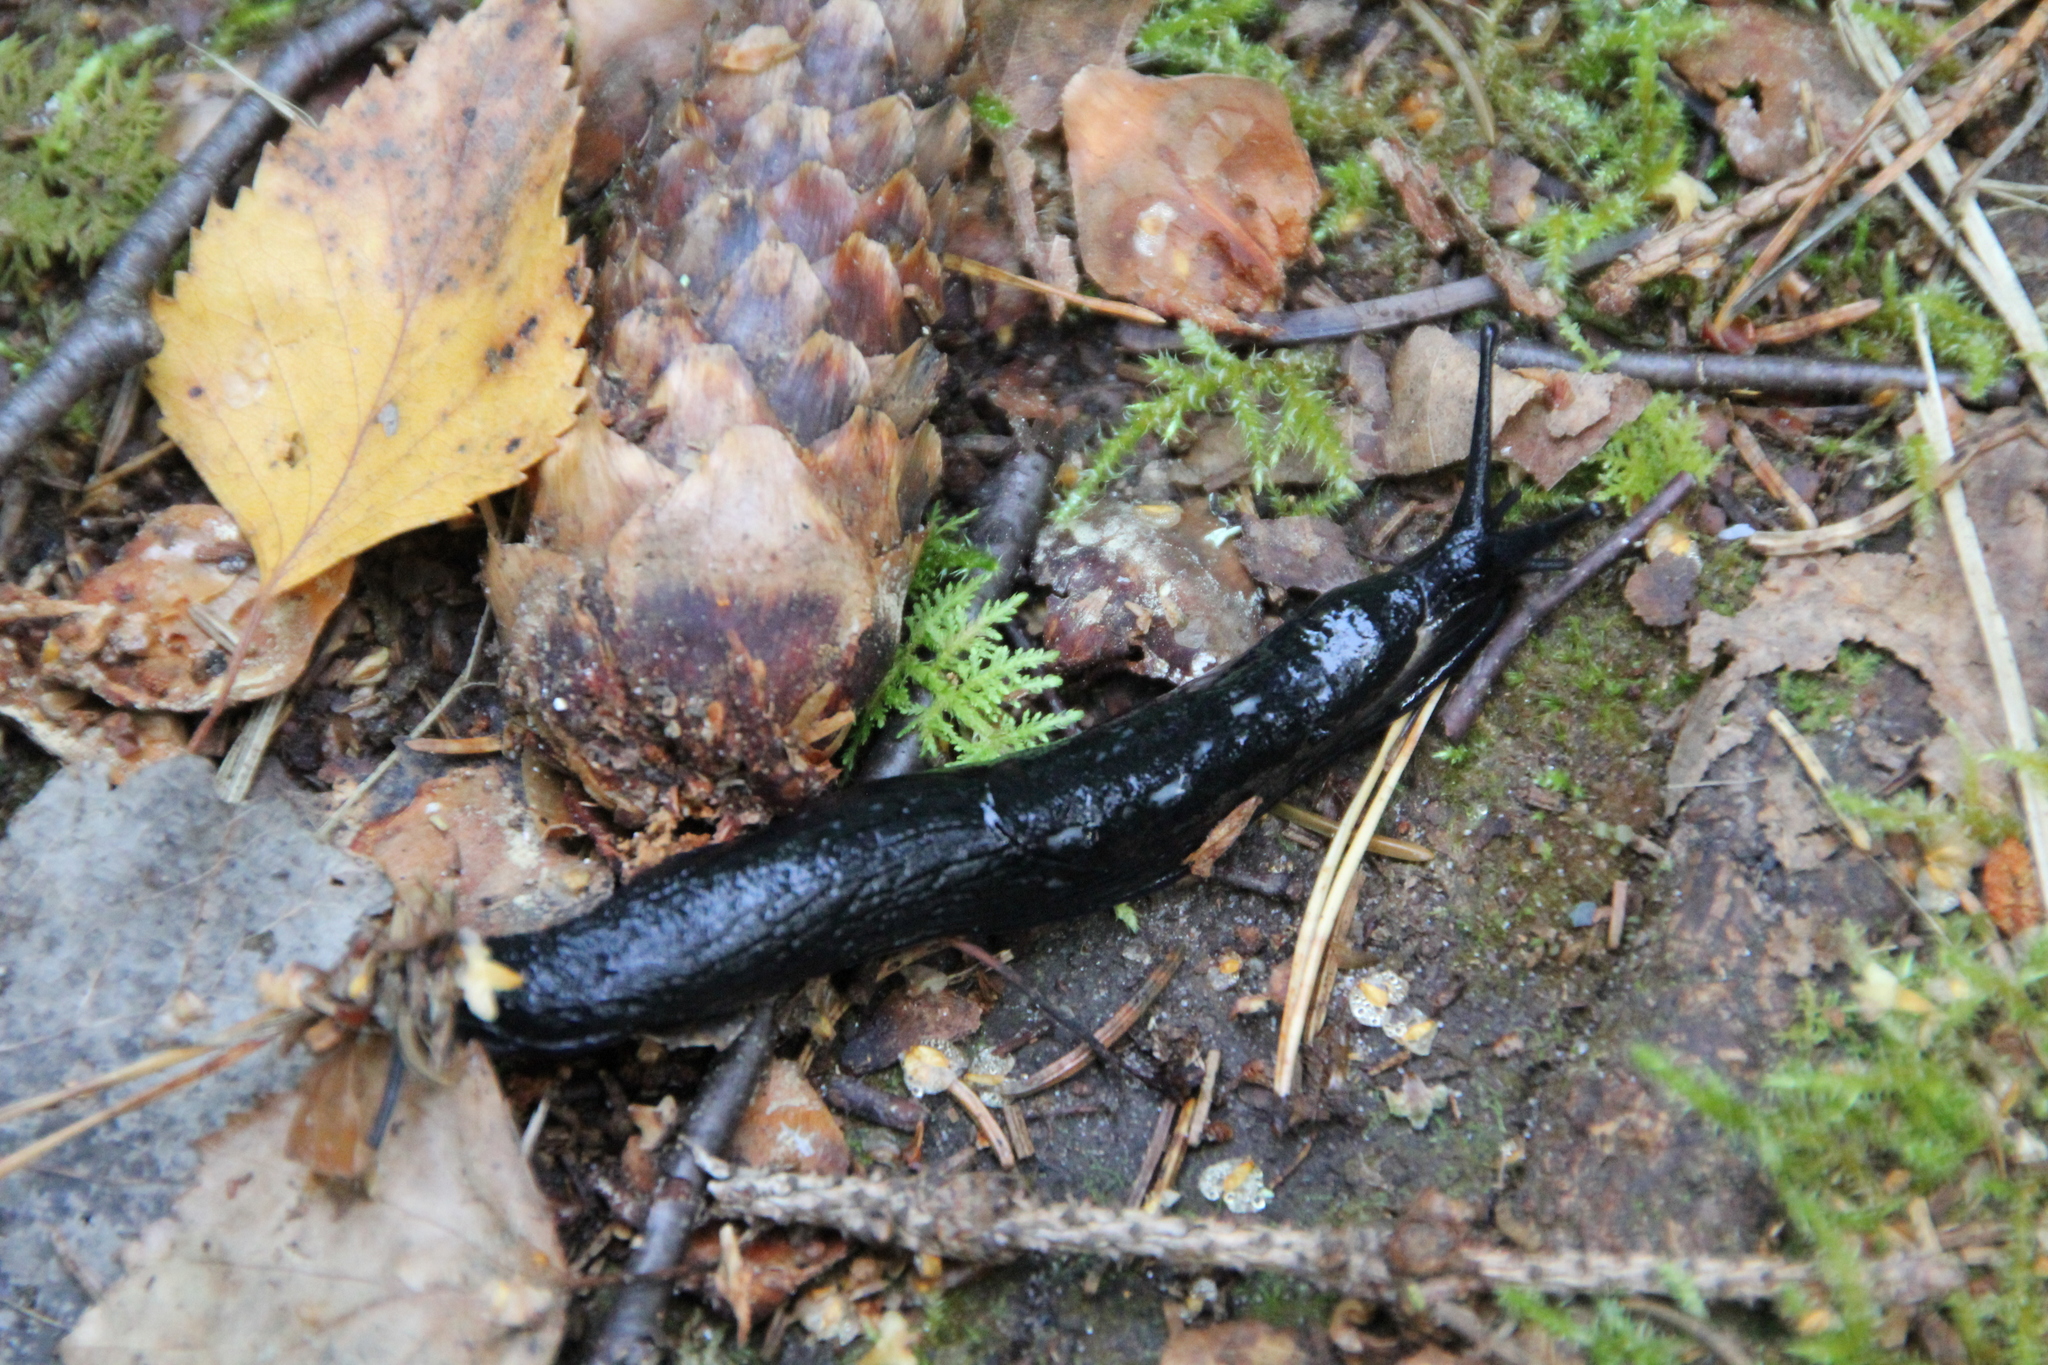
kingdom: Animalia
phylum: Mollusca
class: Gastropoda
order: Stylommatophora
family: Arionidae
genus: Arion
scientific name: Arion ater
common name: Black arion
